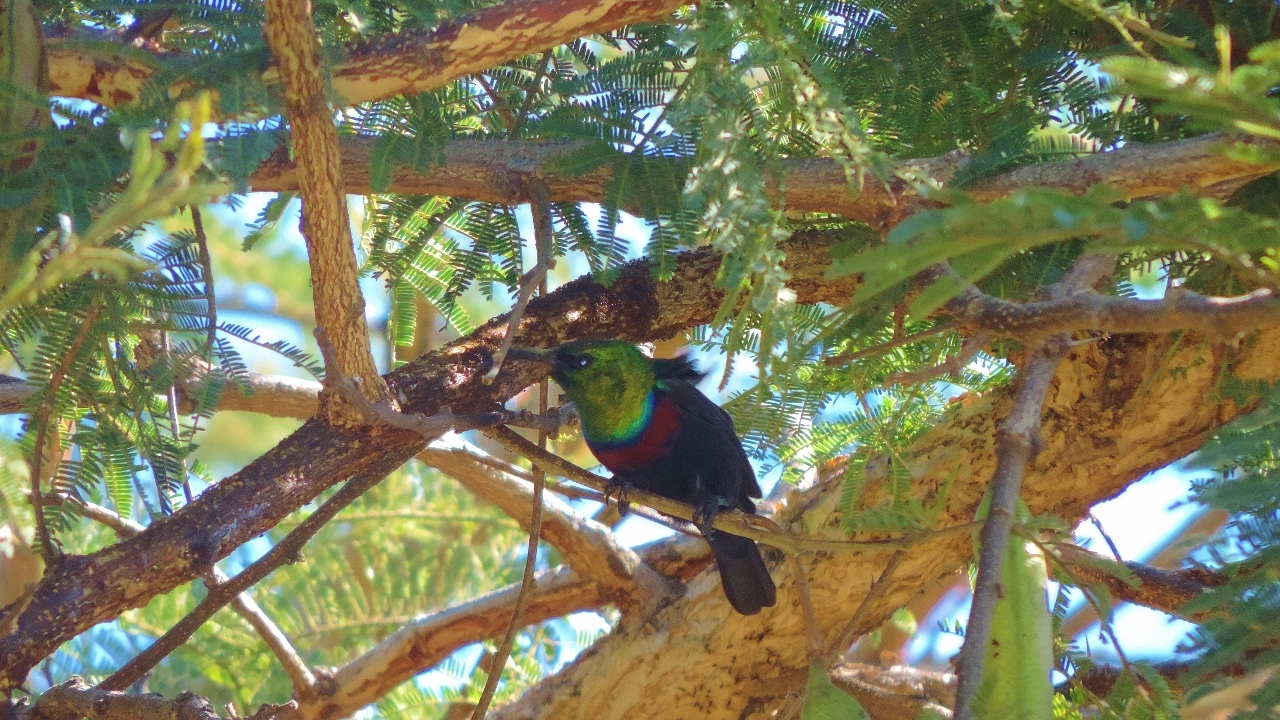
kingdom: Animalia
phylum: Chordata
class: Aves
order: Passeriformes
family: Nectariniidae
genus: Cinnyris
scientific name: Cinnyris mariquensis
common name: Marico sunbird
